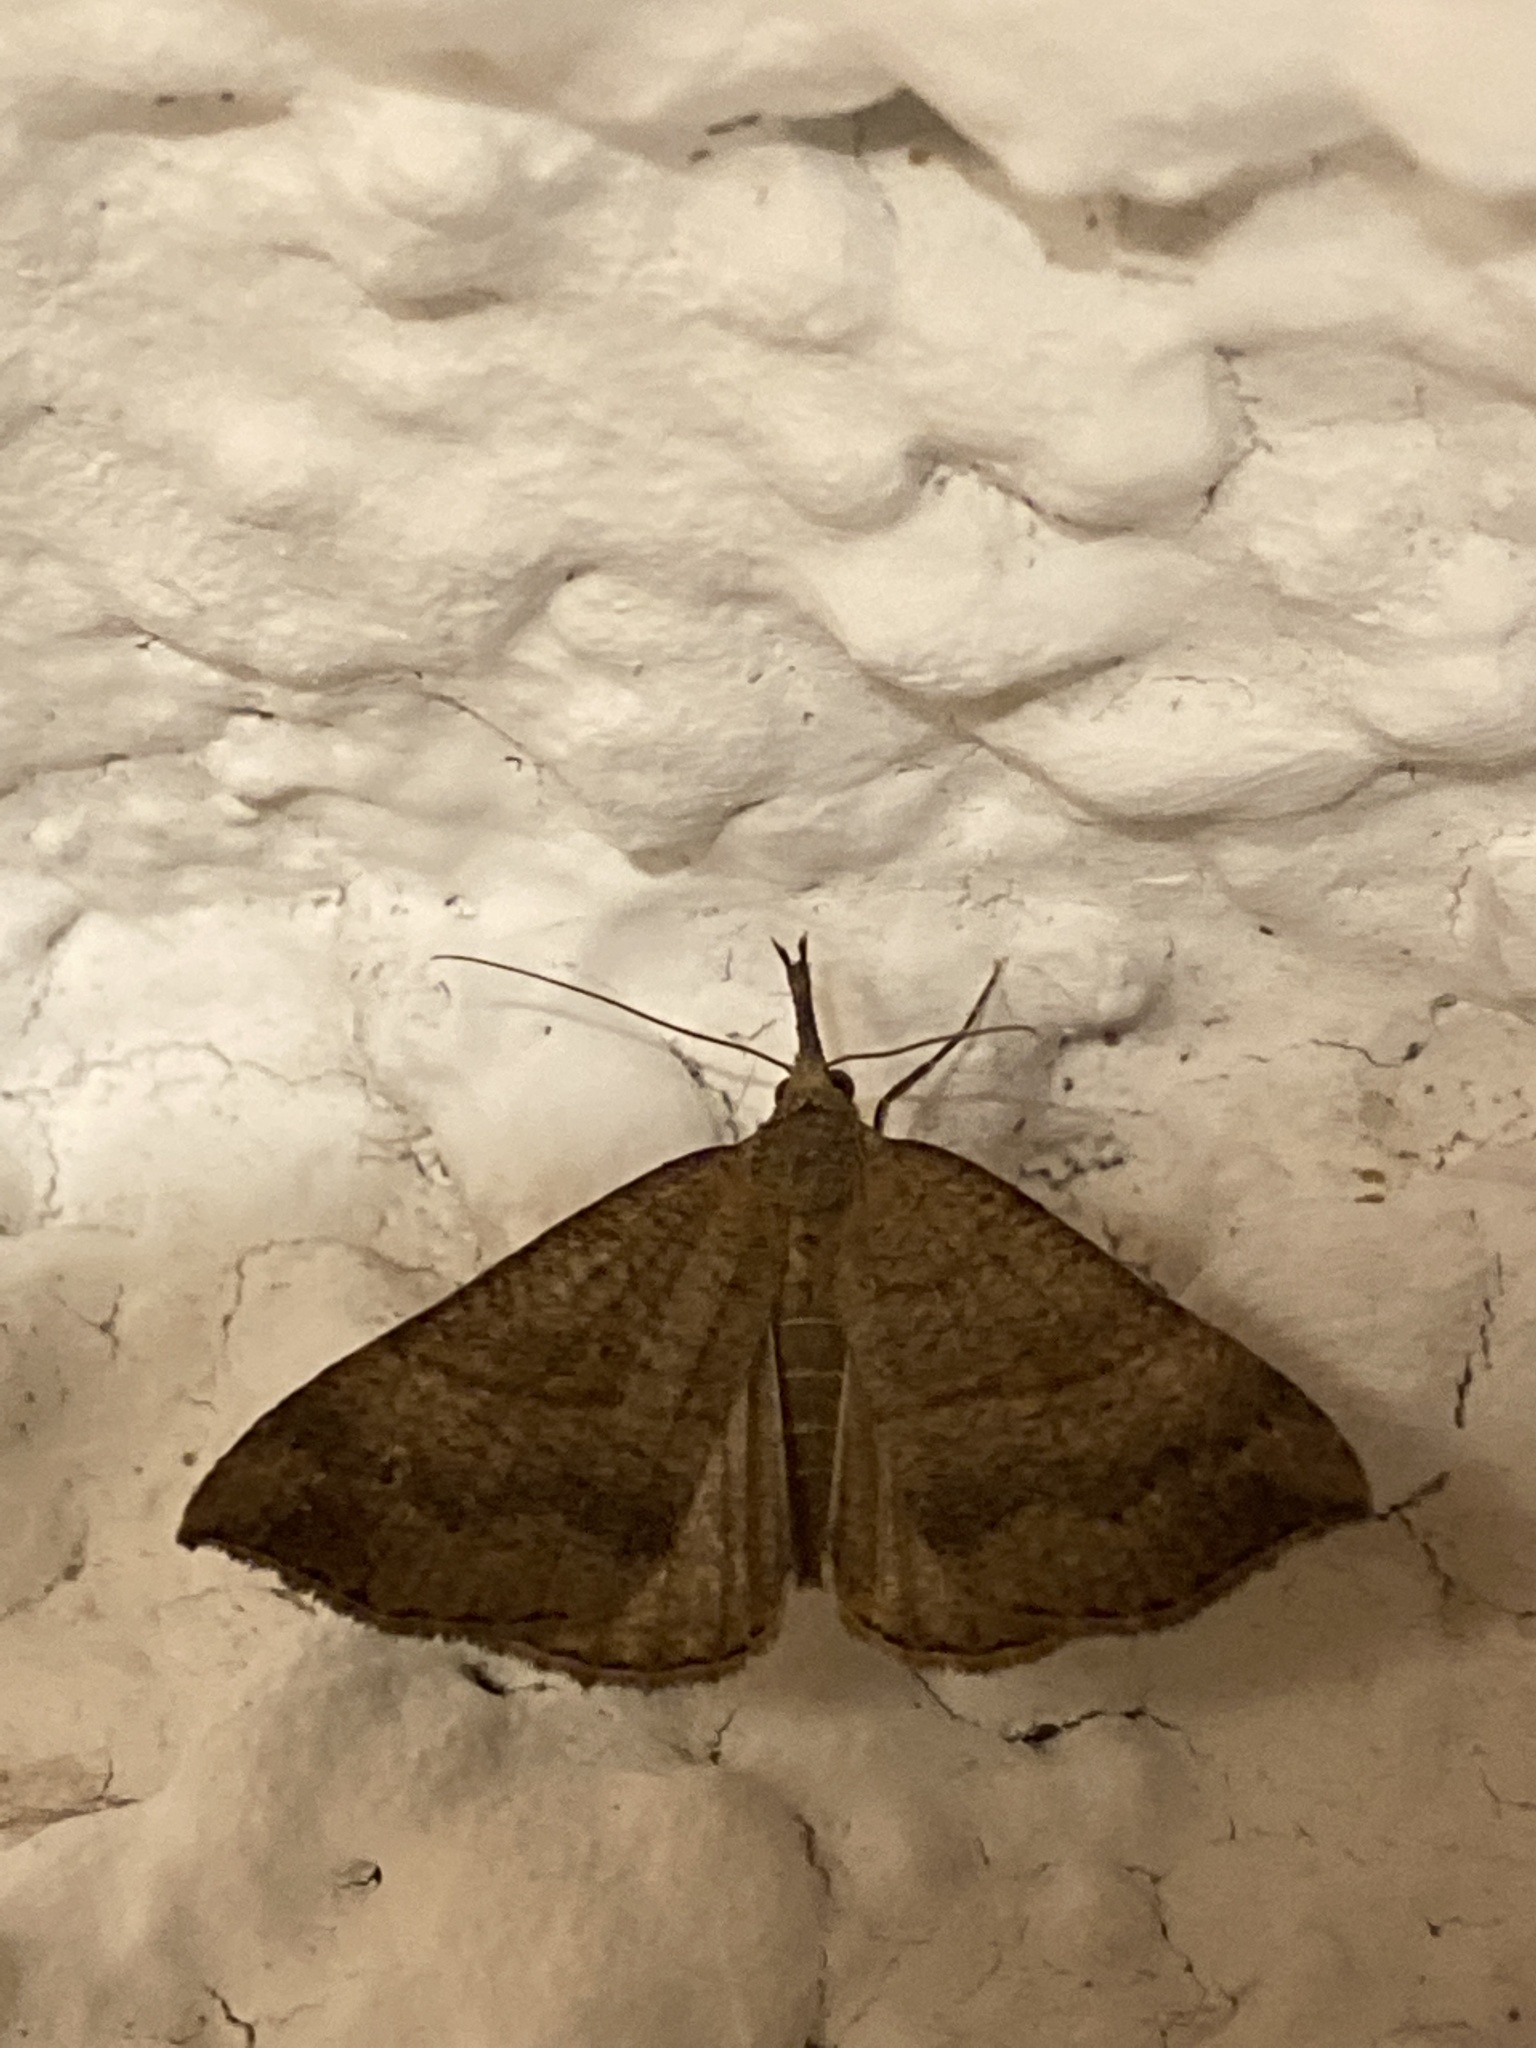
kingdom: Animalia
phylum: Arthropoda
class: Insecta
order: Lepidoptera
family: Erebidae
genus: Hypena
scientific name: Hypena proboscidalis
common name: Snout
